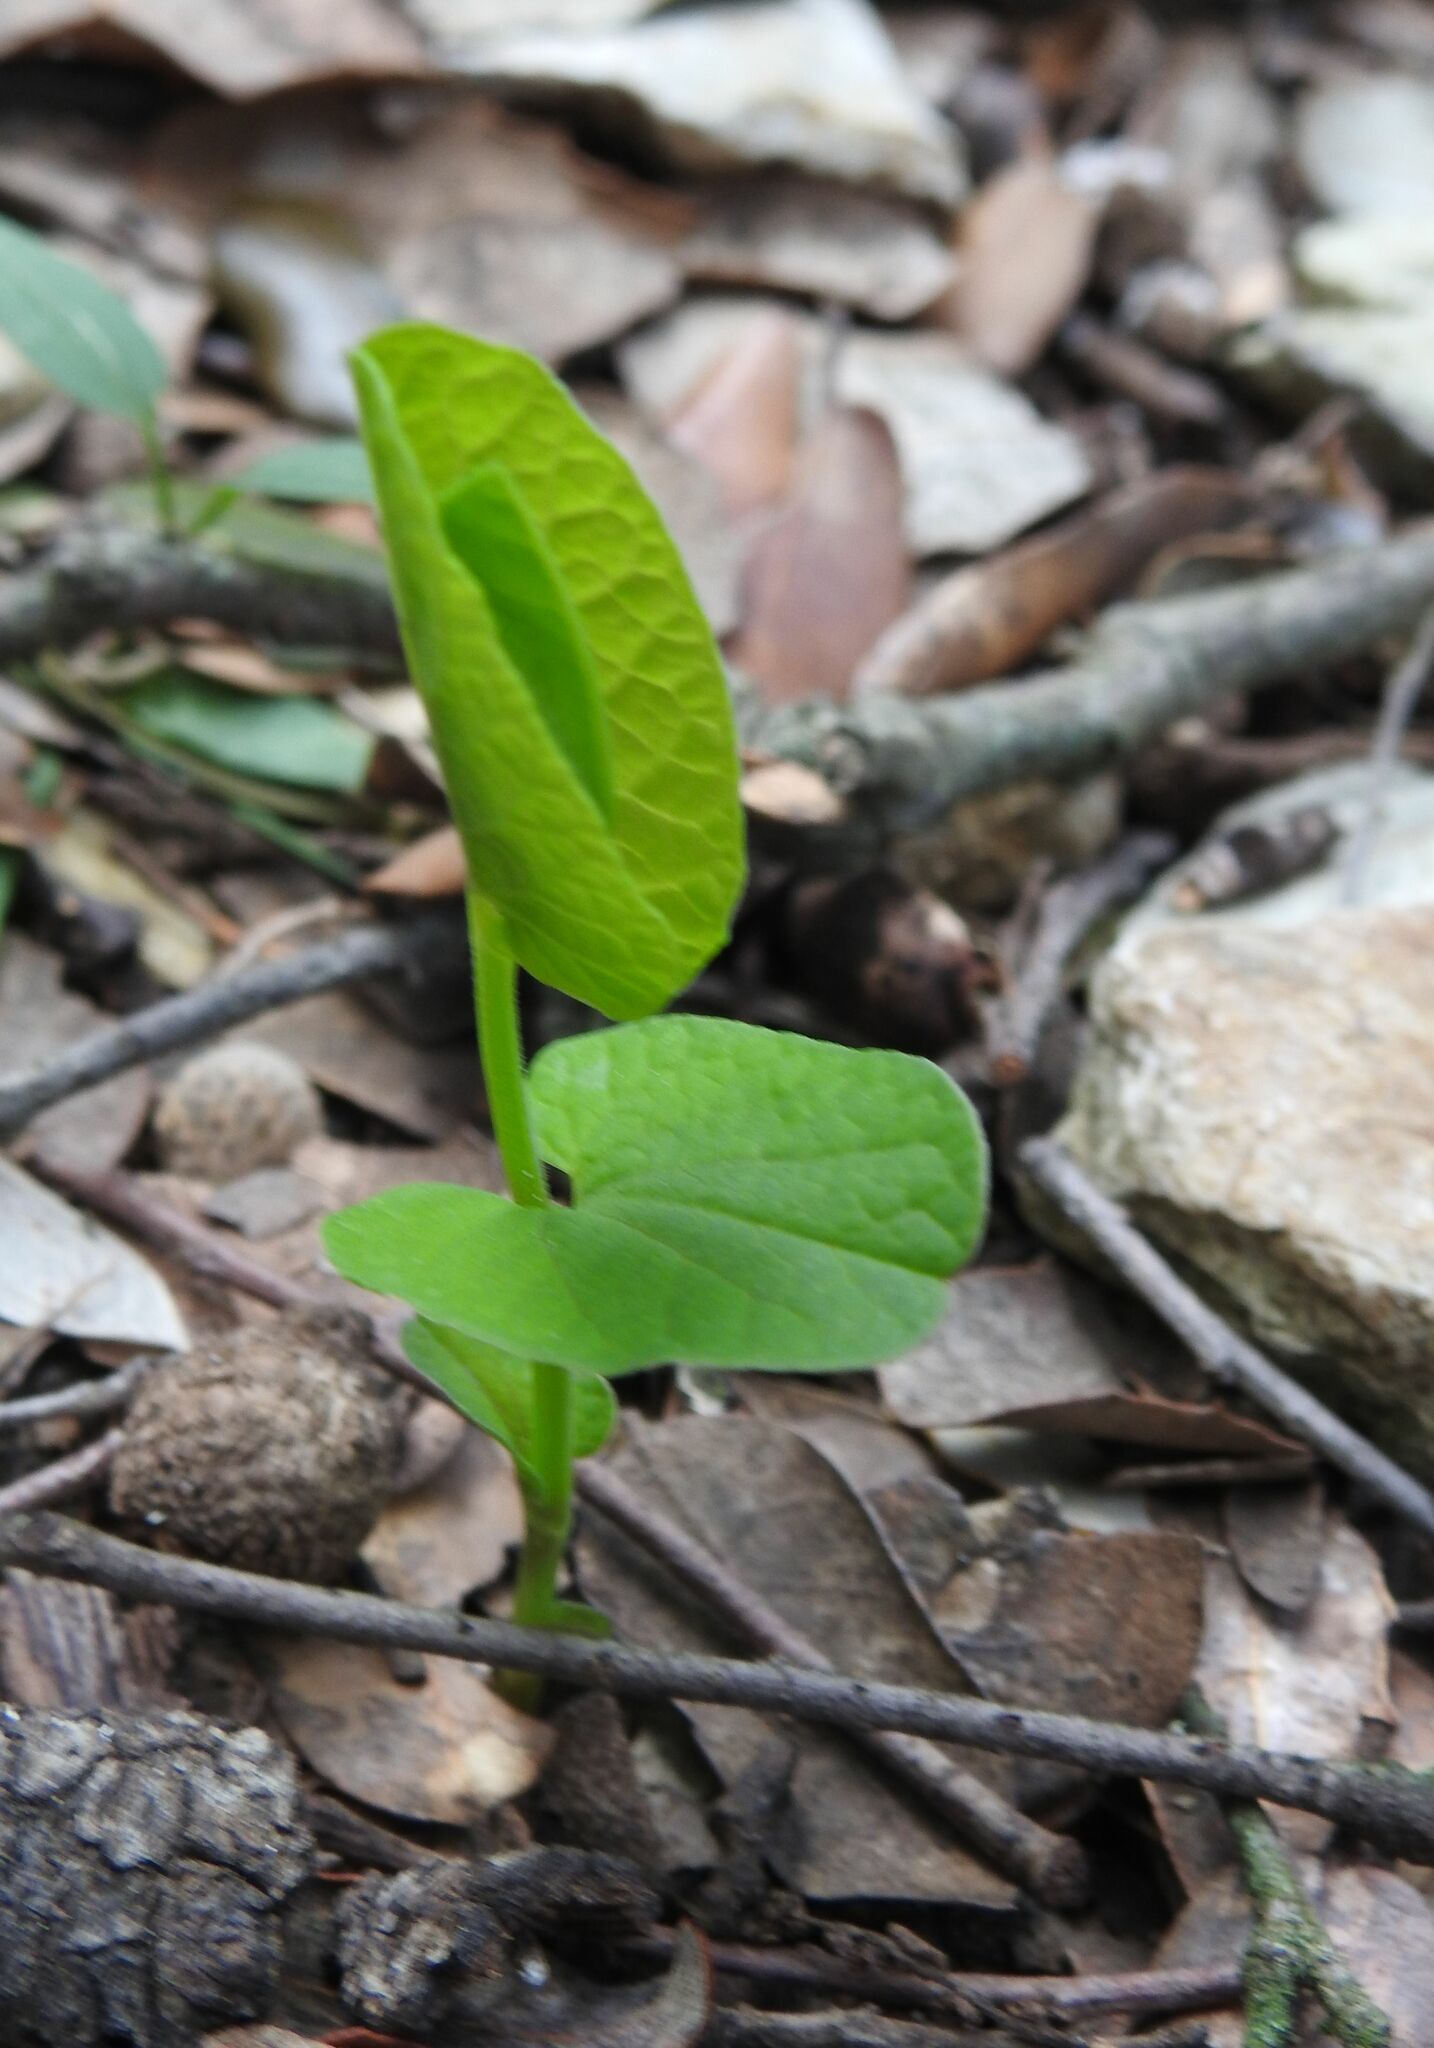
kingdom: Plantae
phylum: Tracheophyta
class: Magnoliopsida
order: Piperales
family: Aristolochiaceae
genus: Aristolochia
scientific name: Aristolochia rotunda
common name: Smearwort
